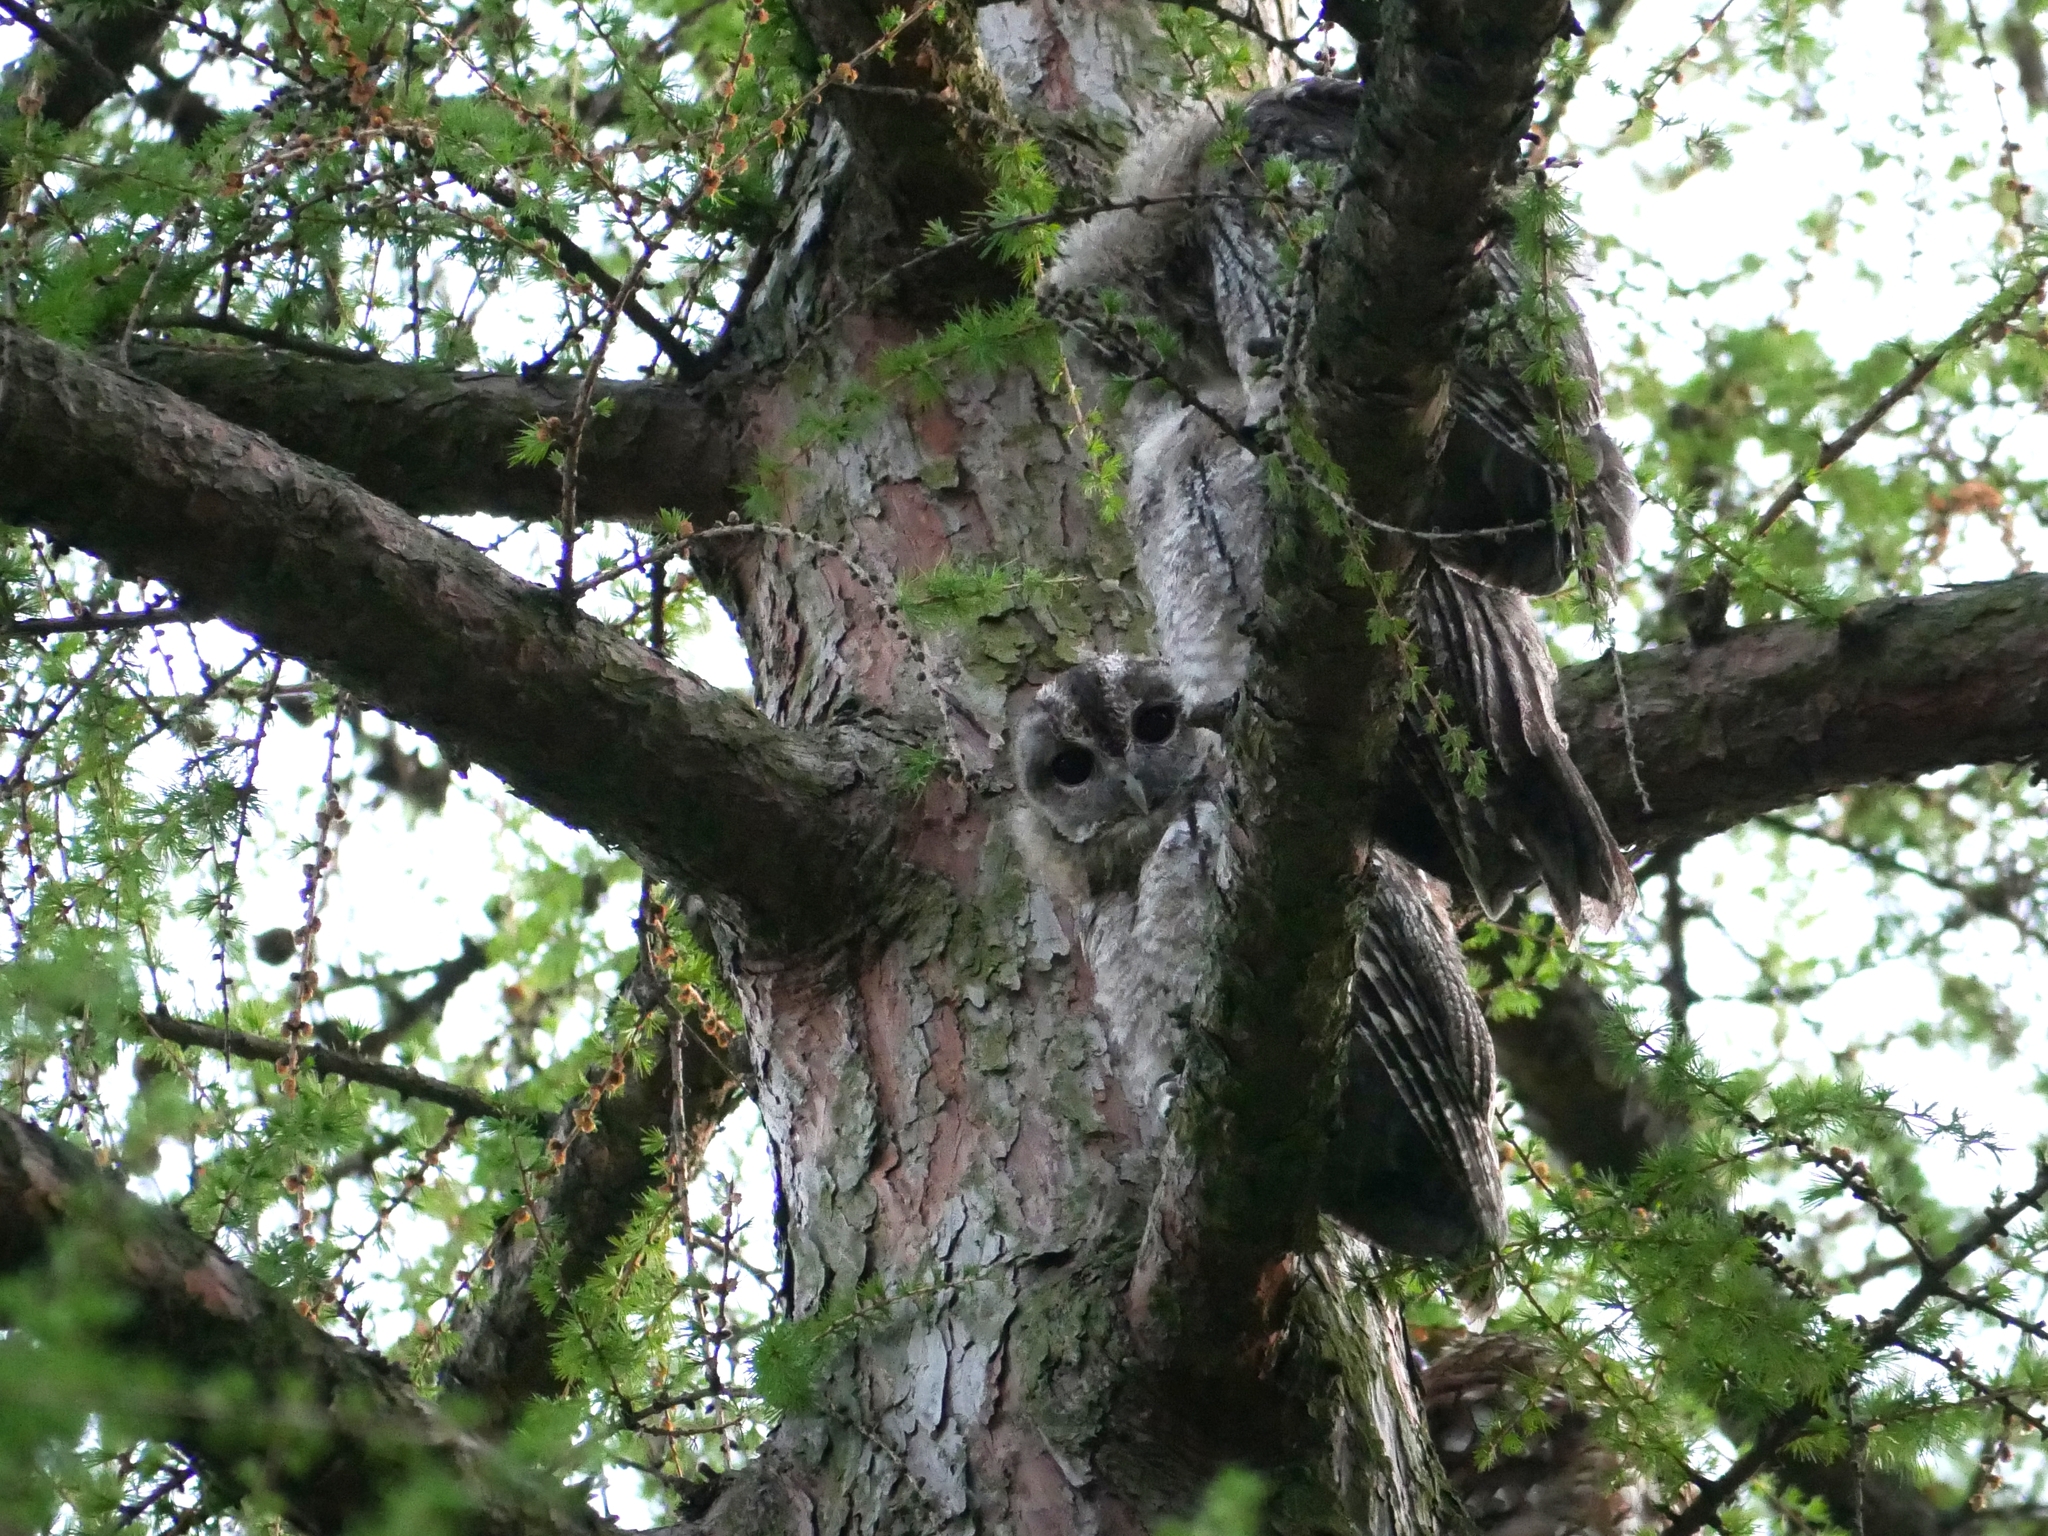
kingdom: Animalia
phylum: Chordata
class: Aves
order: Strigiformes
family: Strigidae
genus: Strix
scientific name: Strix aluco
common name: Tawny owl
